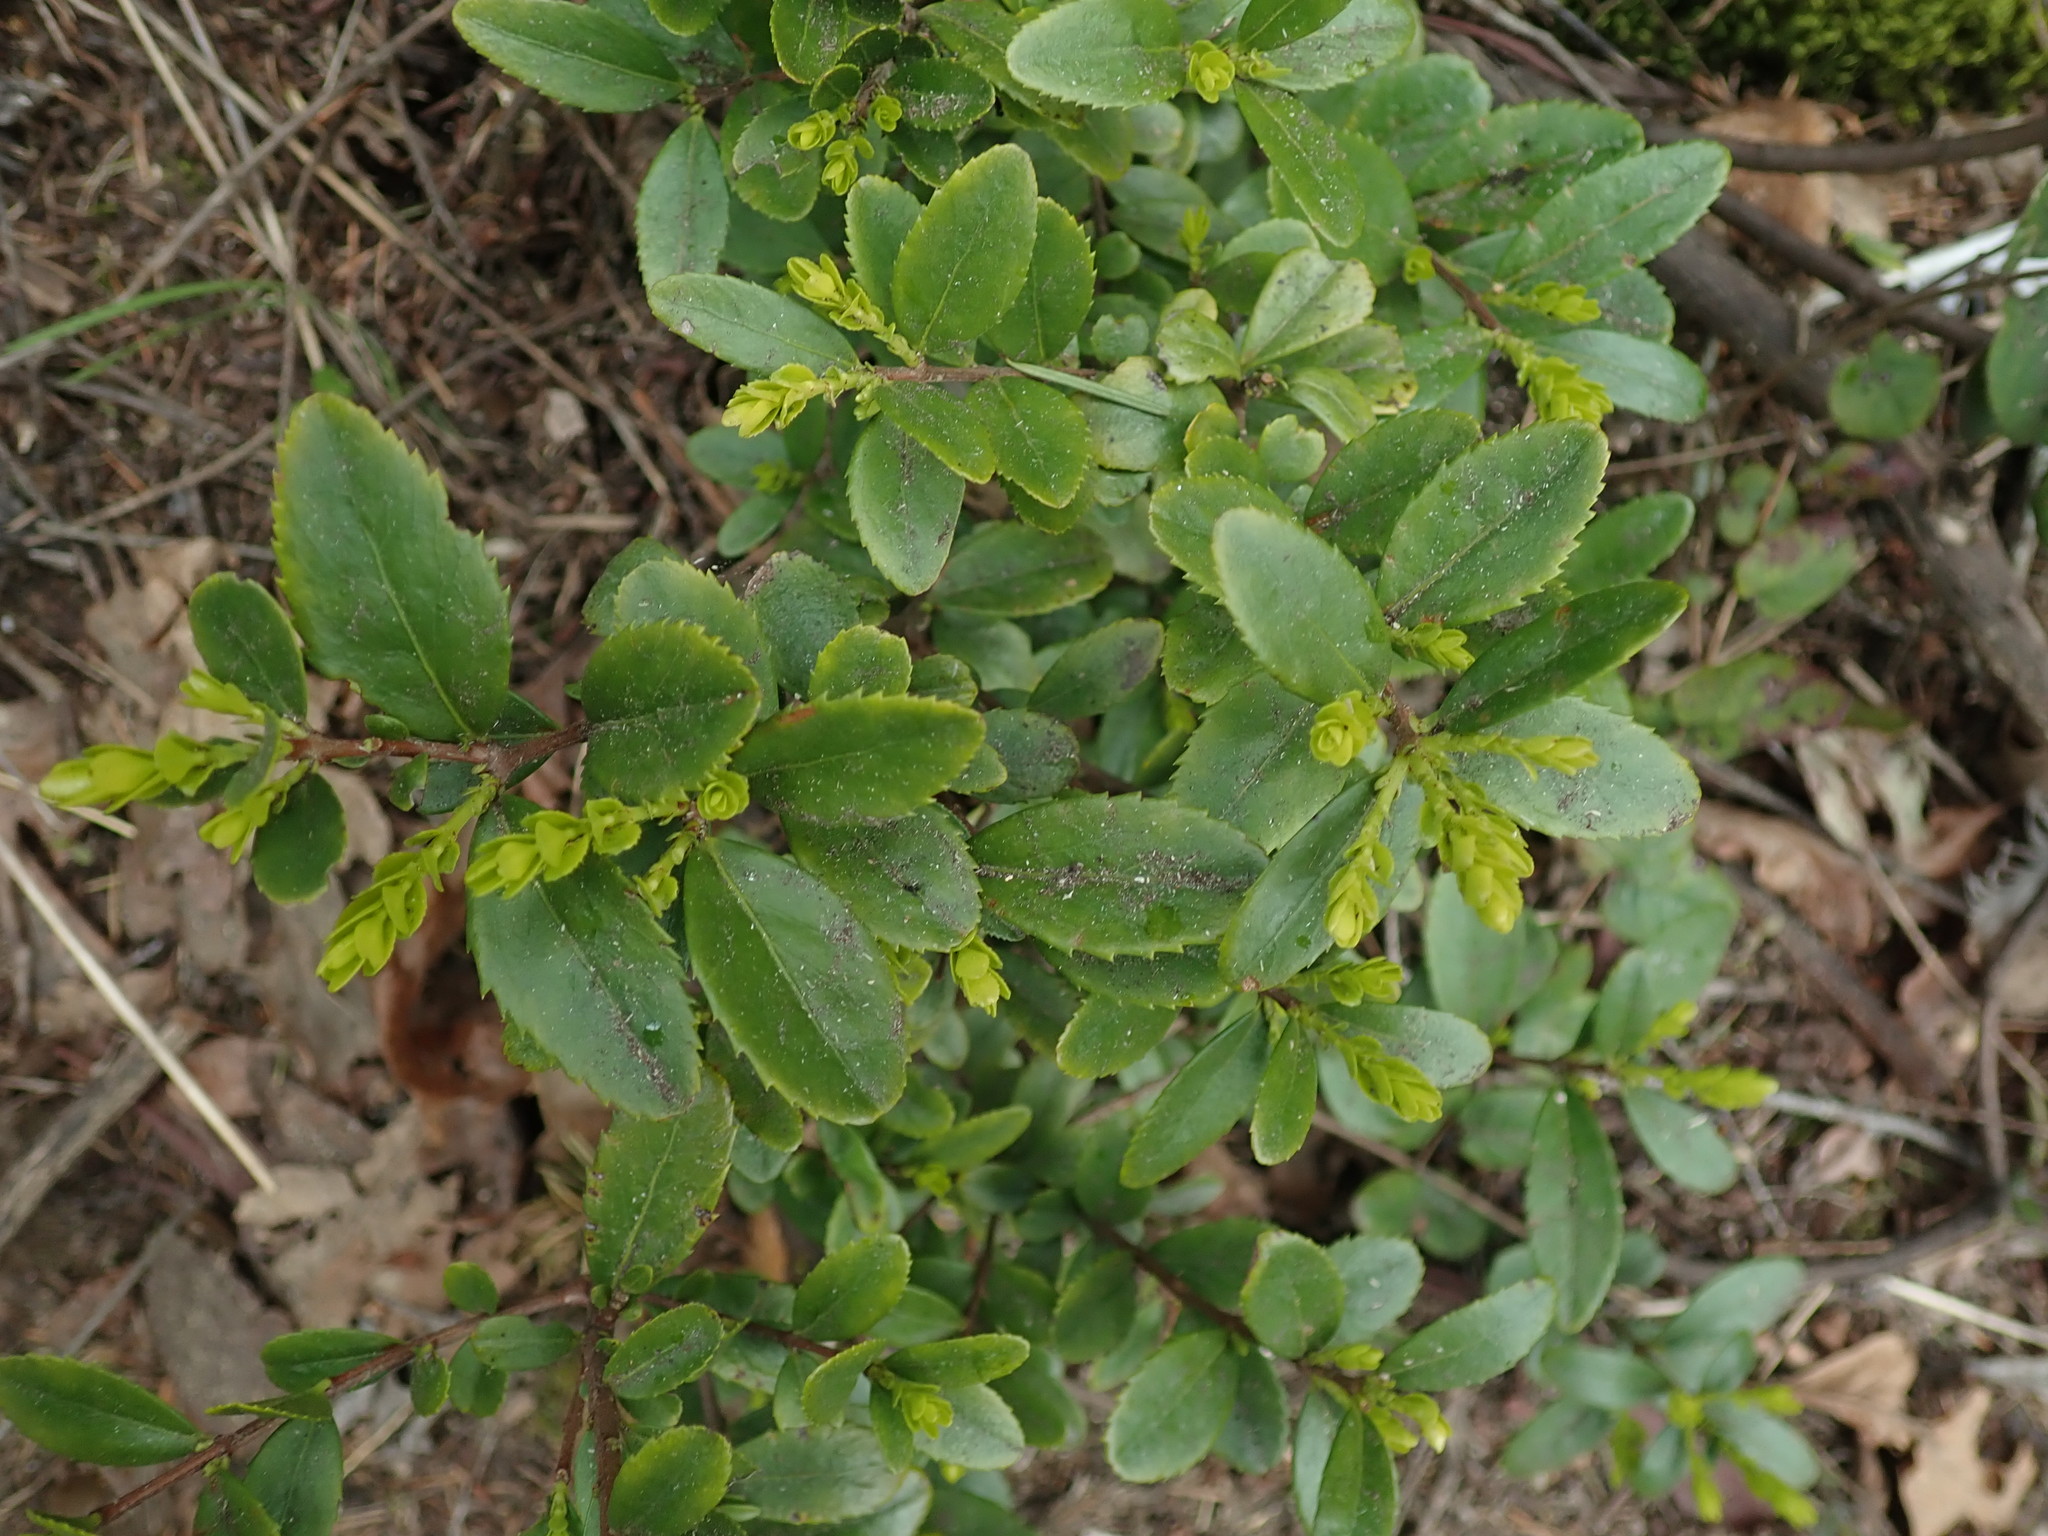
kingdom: Plantae
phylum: Tracheophyta
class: Magnoliopsida
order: Celastrales
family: Celastraceae
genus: Paxistima
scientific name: Paxistima myrsinites
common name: Mountain-lover
